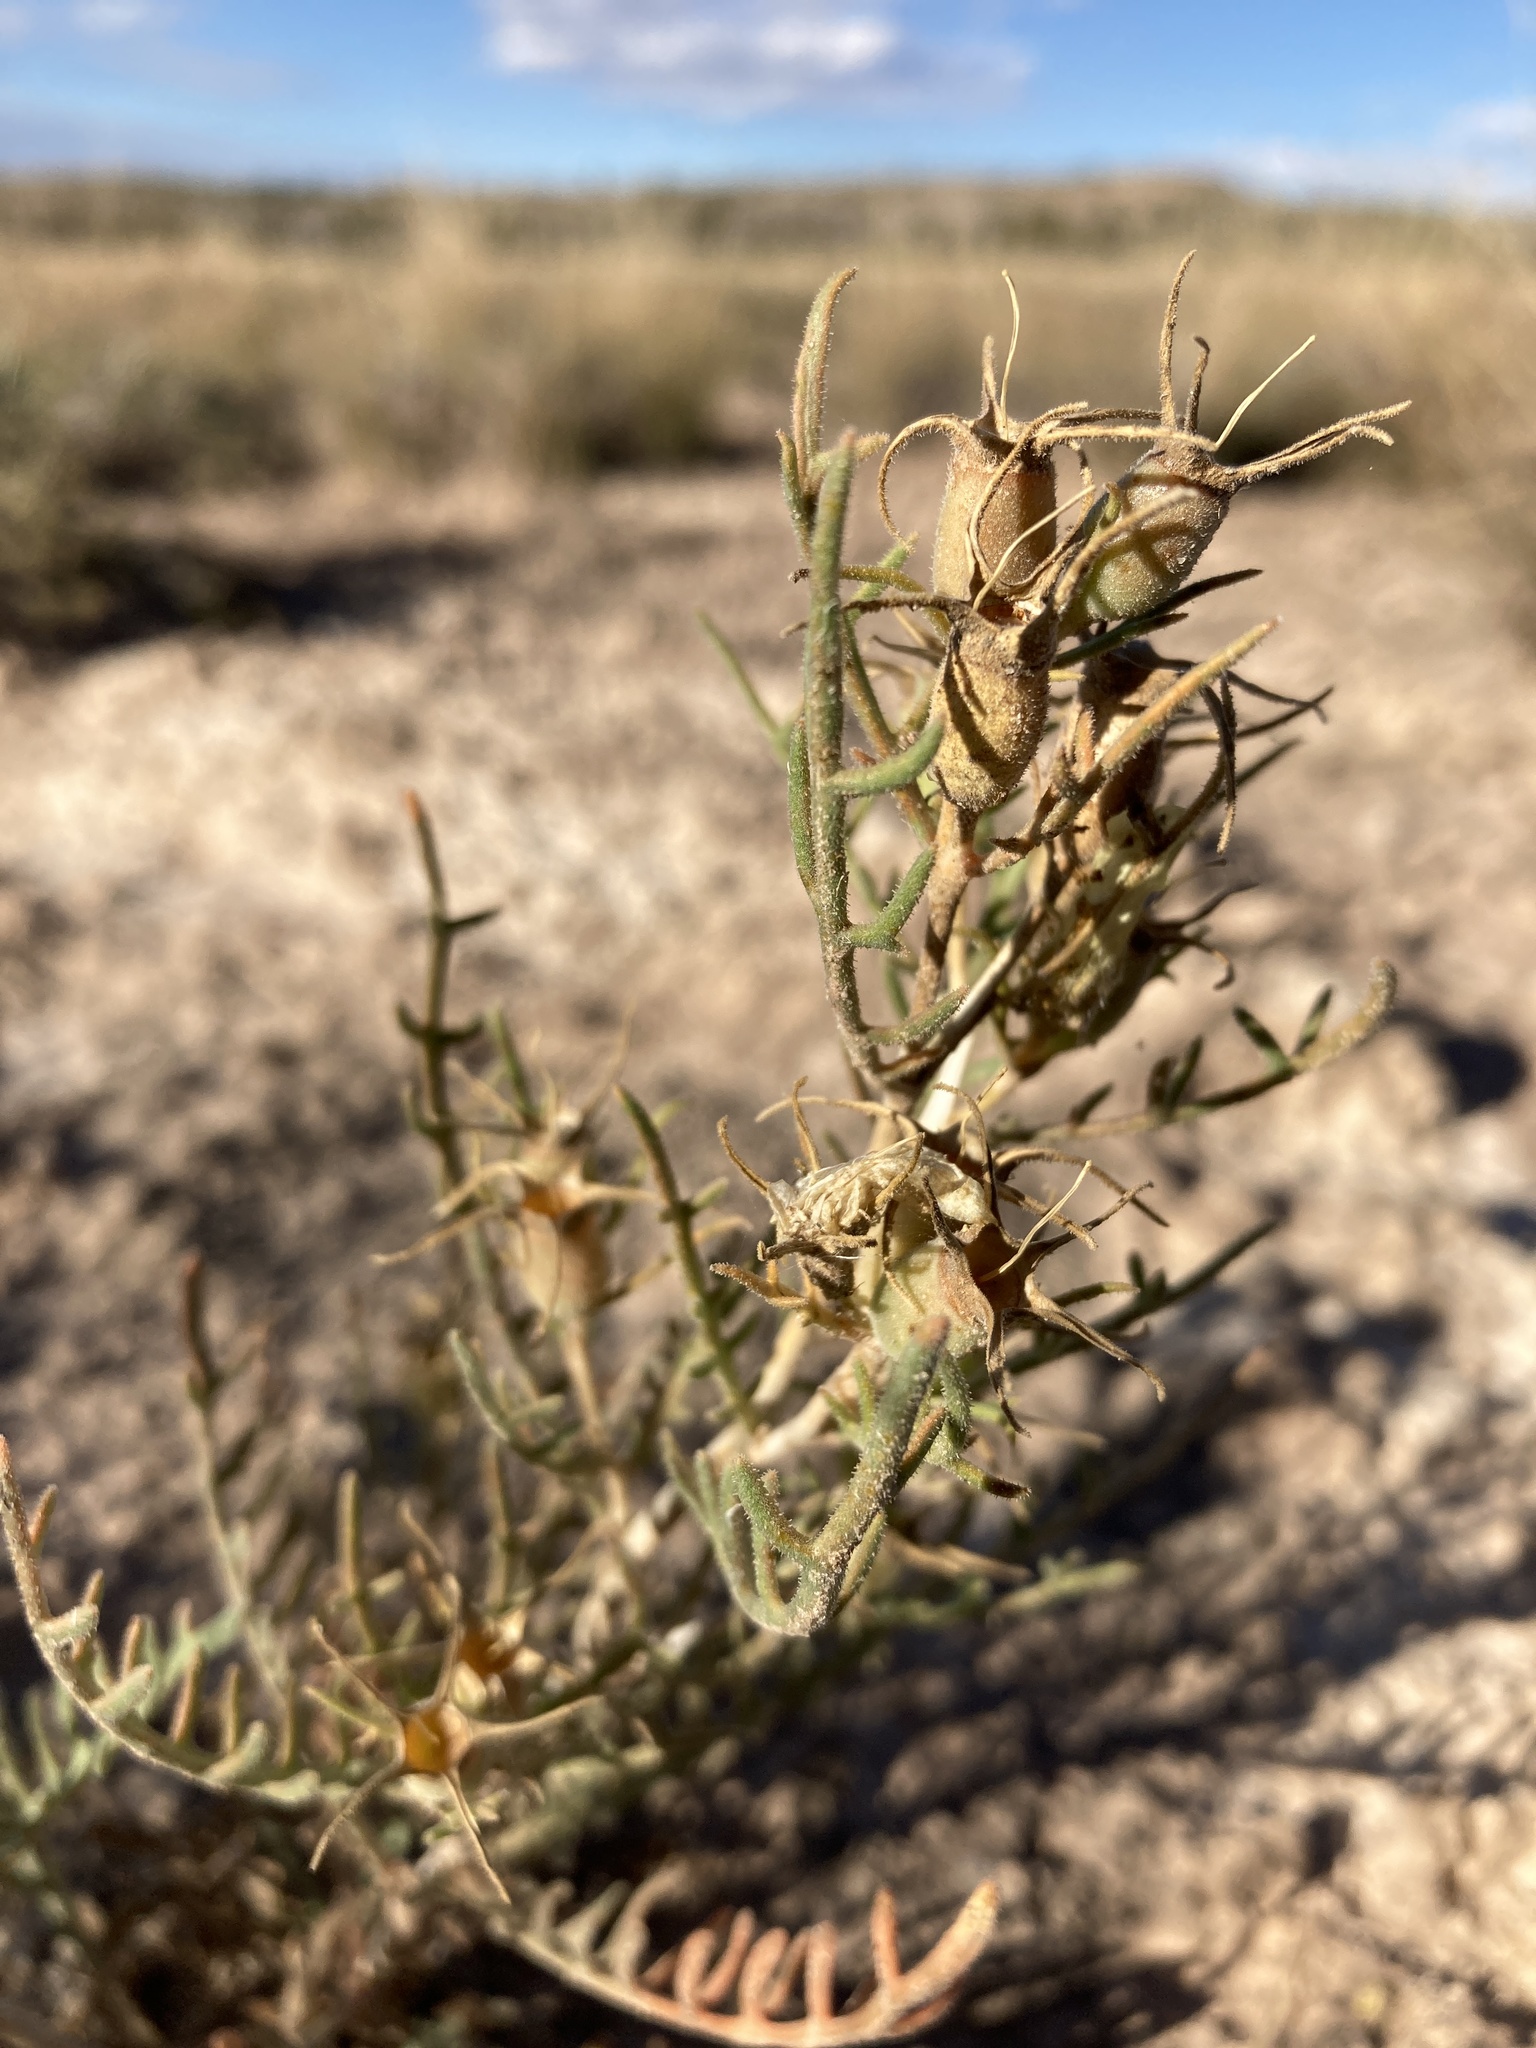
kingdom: Plantae
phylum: Tracheophyta
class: Magnoliopsida
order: Cornales
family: Loasaceae
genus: Mentzelia
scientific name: Mentzelia humilis
